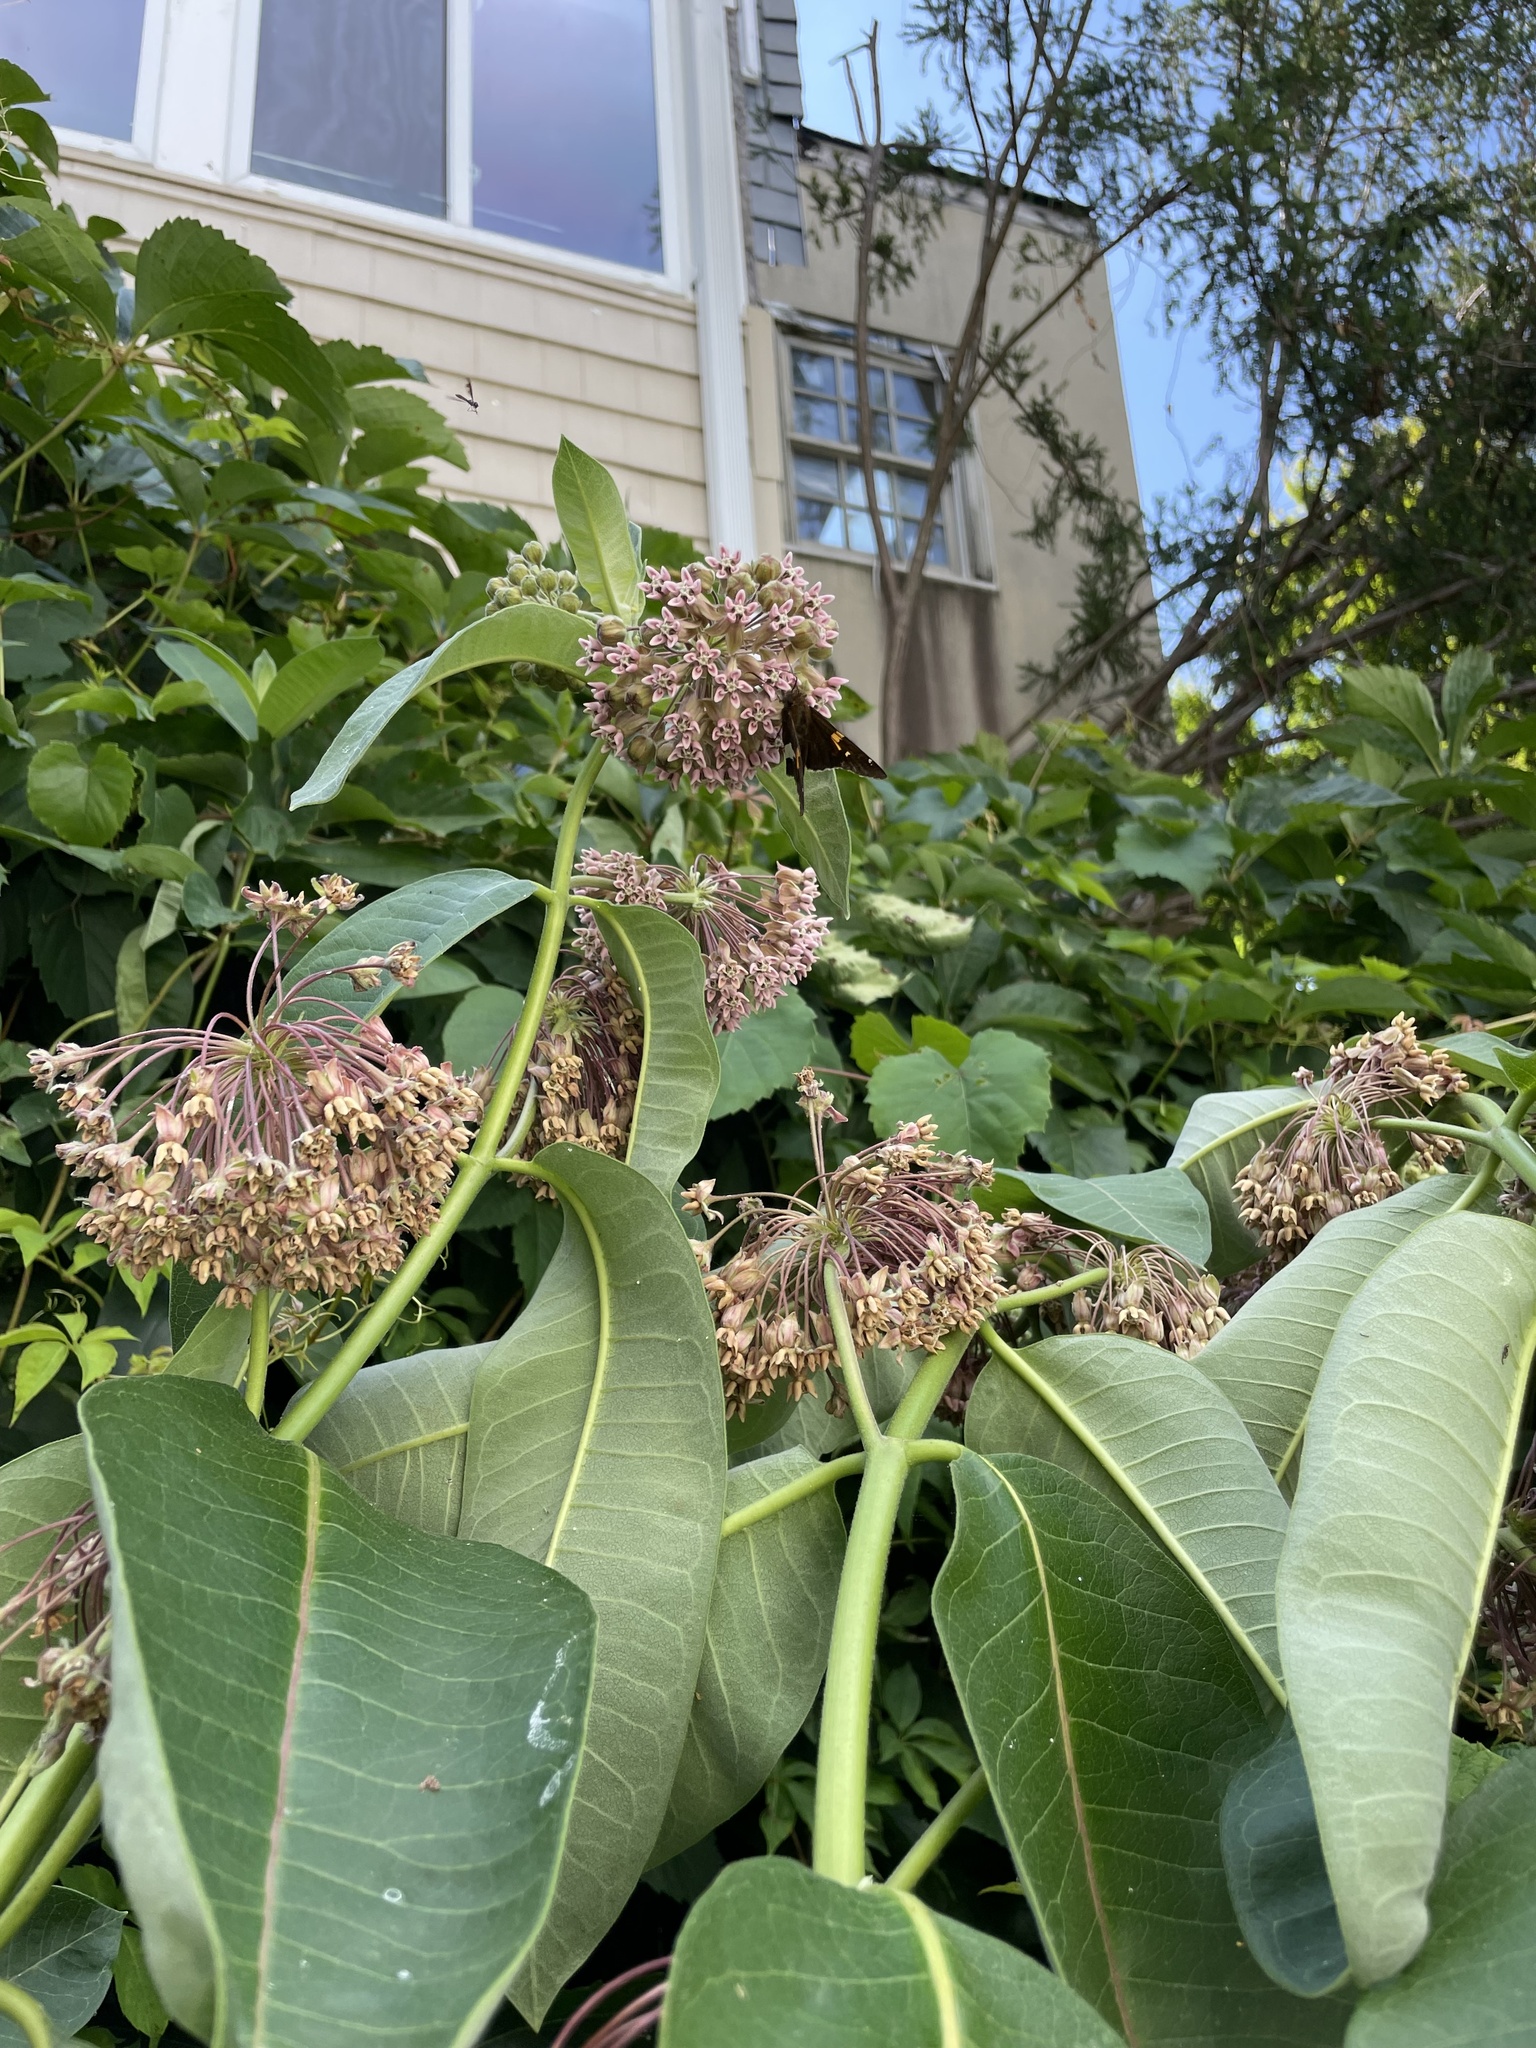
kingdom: Animalia
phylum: Arthropoda
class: Insecta
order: Lepidoptera
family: Hesperiidae
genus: Epargyreus
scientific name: Epargyreus clarus
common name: Silver-spotted skipper
